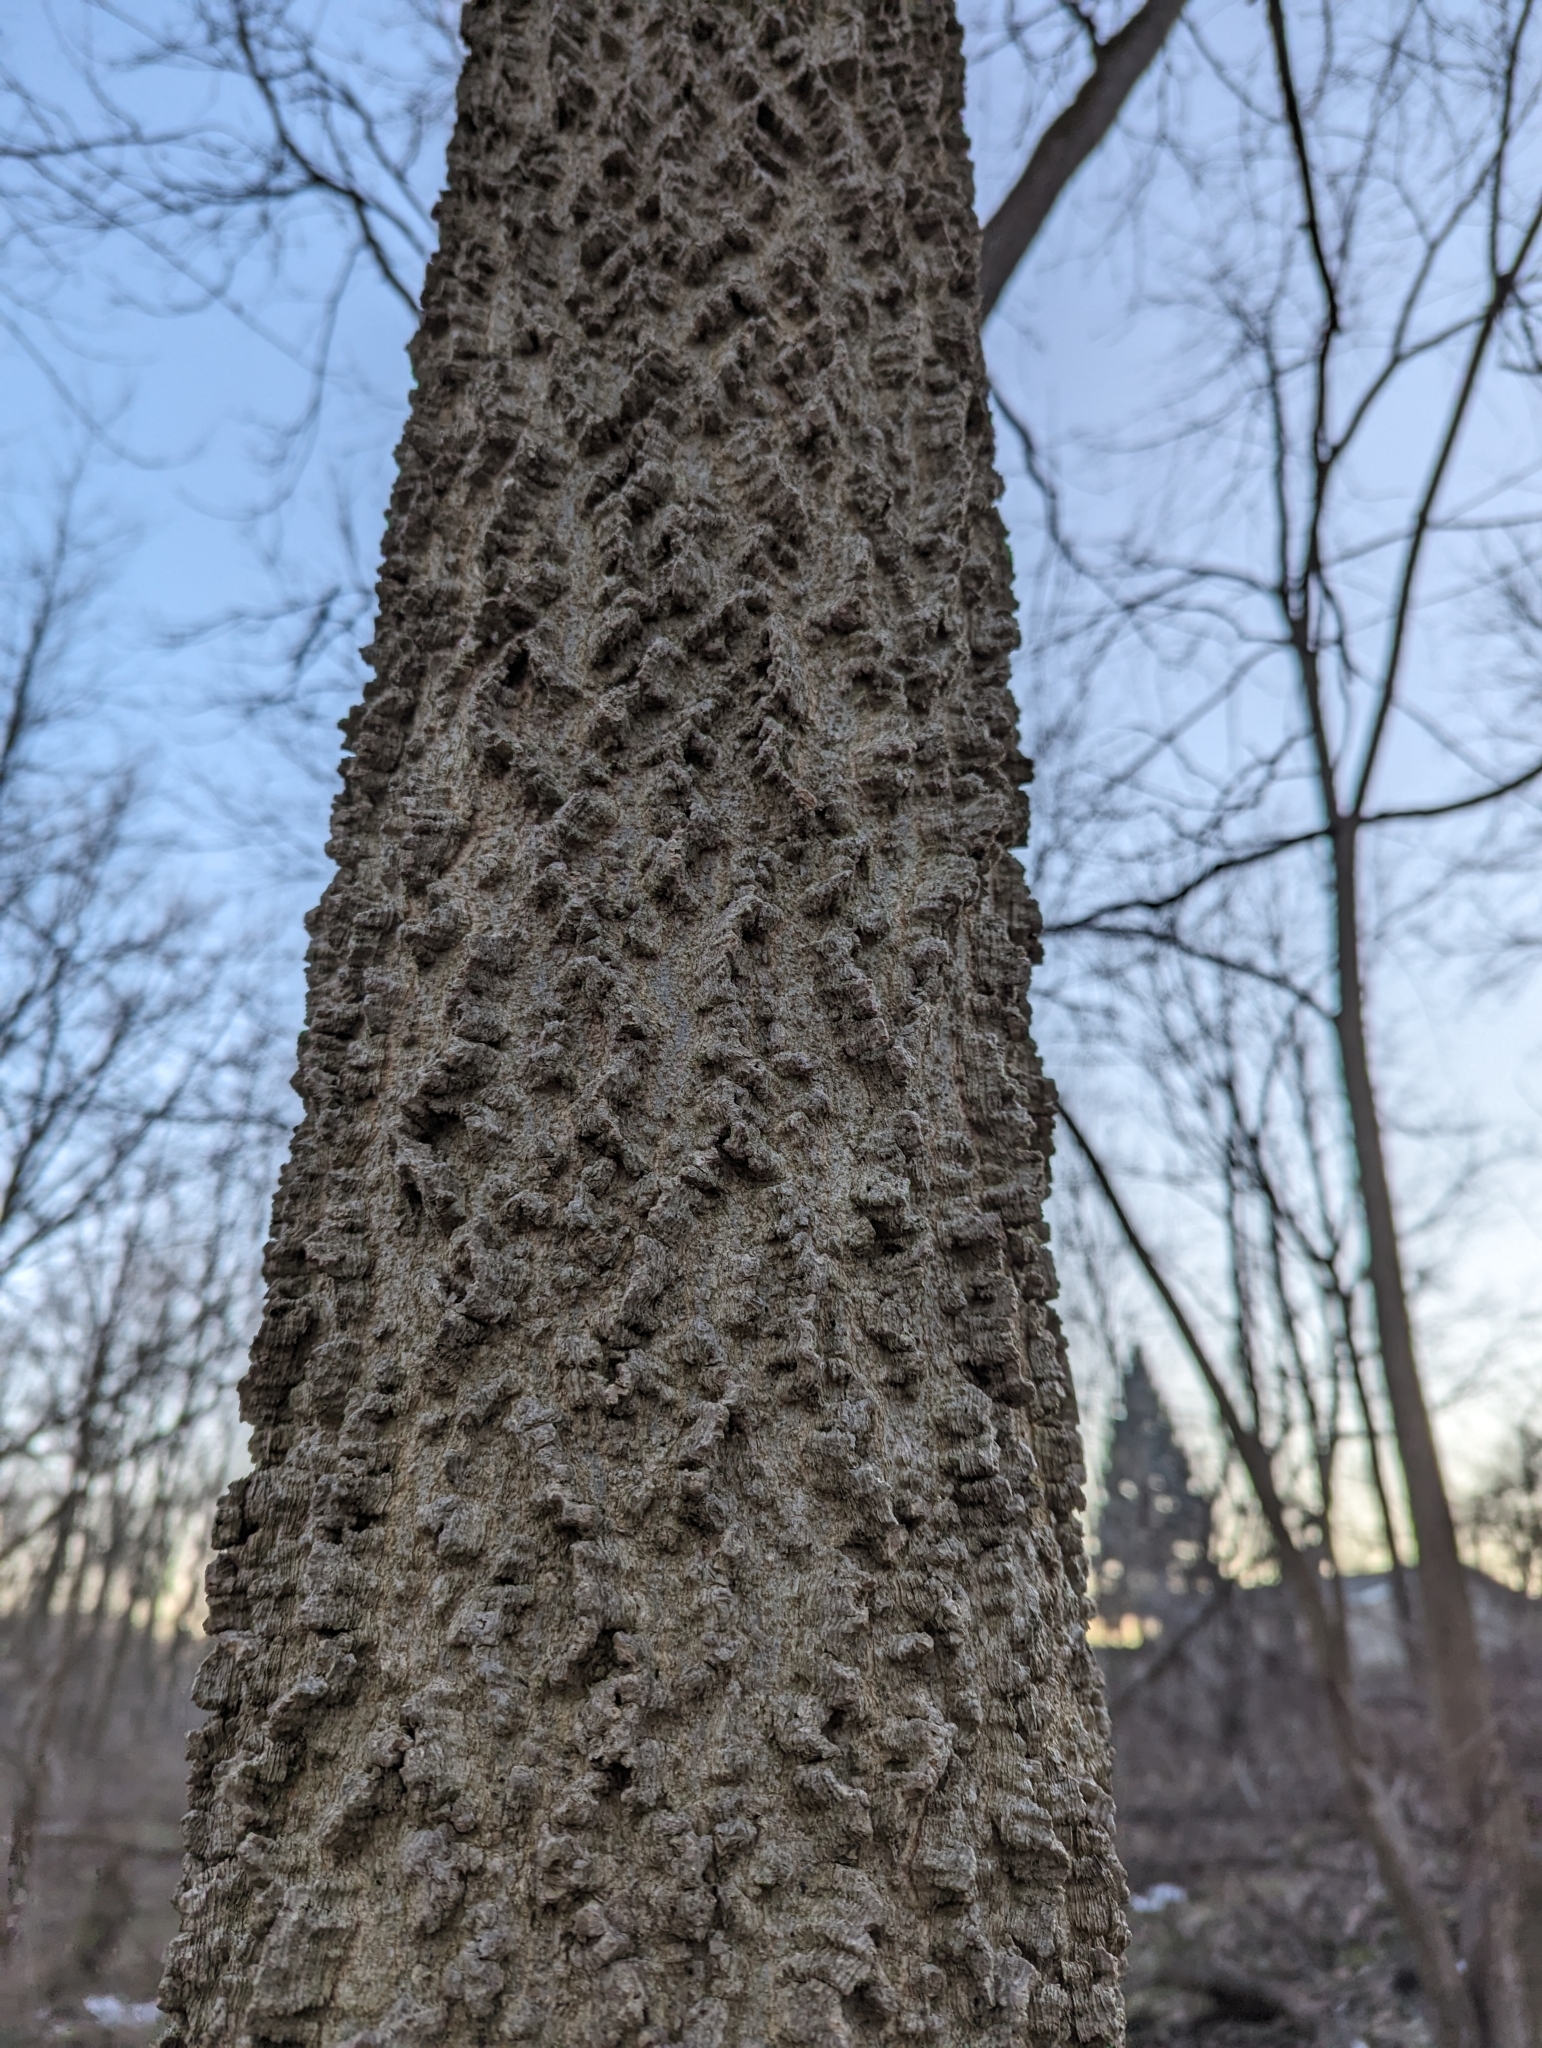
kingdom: Plantae
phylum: Tracheophyta
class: Magnoliopsida
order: Rosales
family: Cannabaceae
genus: Celtis
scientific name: Celtis occidentalis
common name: Common hackberry
